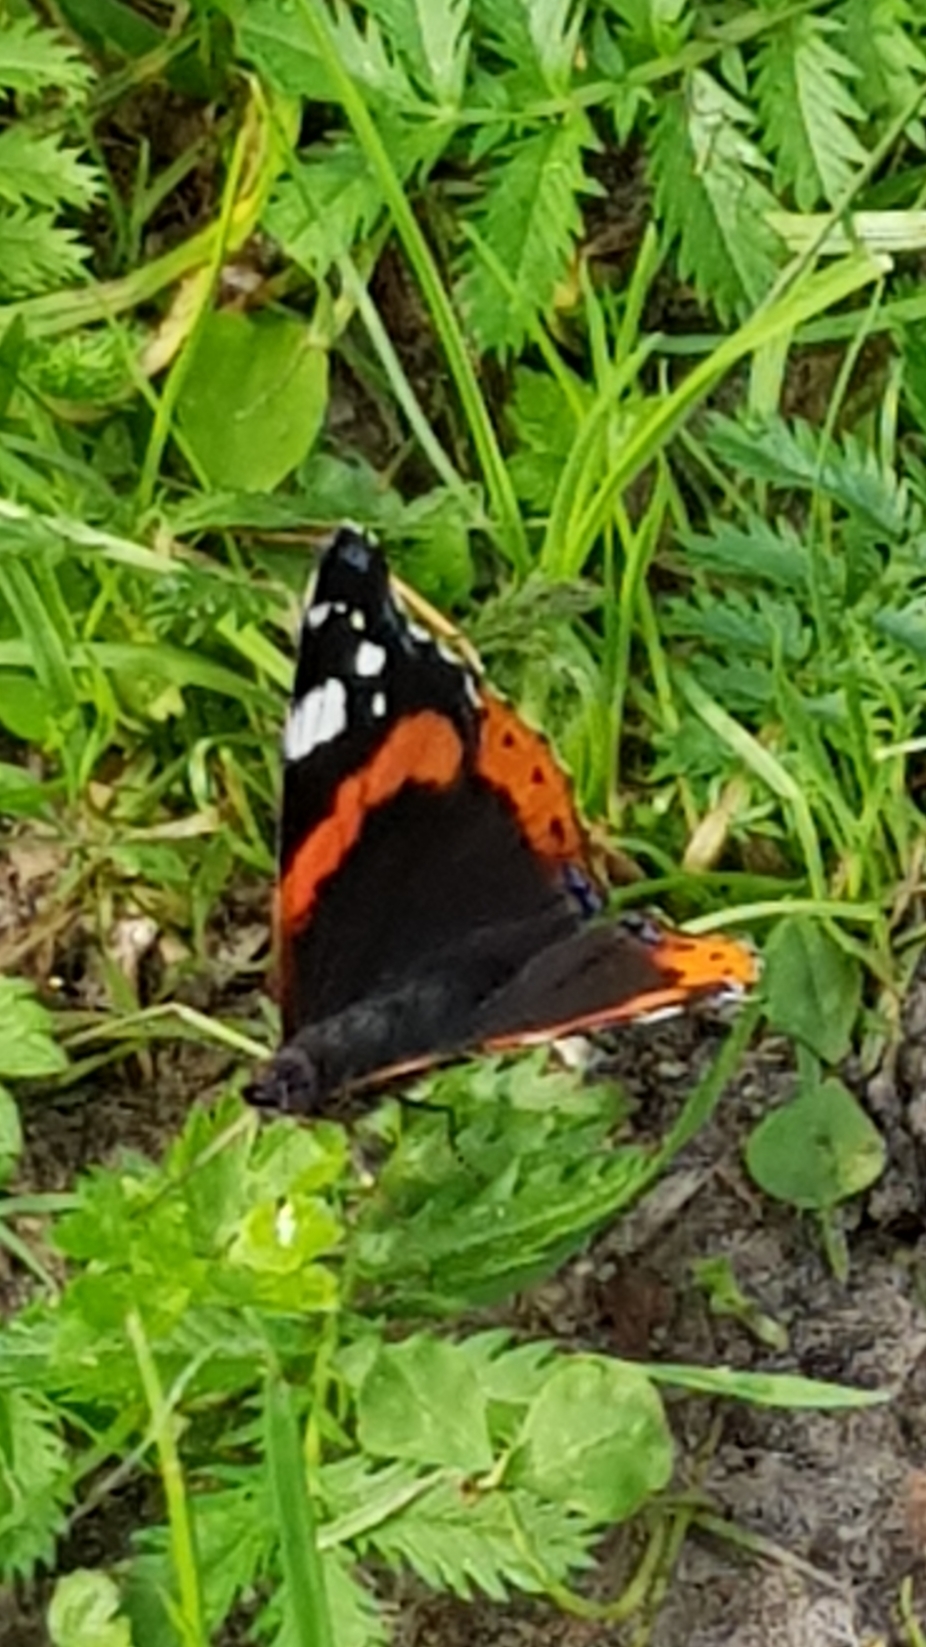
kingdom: Animalia
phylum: Arthropoda
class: Insecta
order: Lepidoptera
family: Nymphalidae
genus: Vanessa
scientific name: Vanessa atalanta
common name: Red admiral
